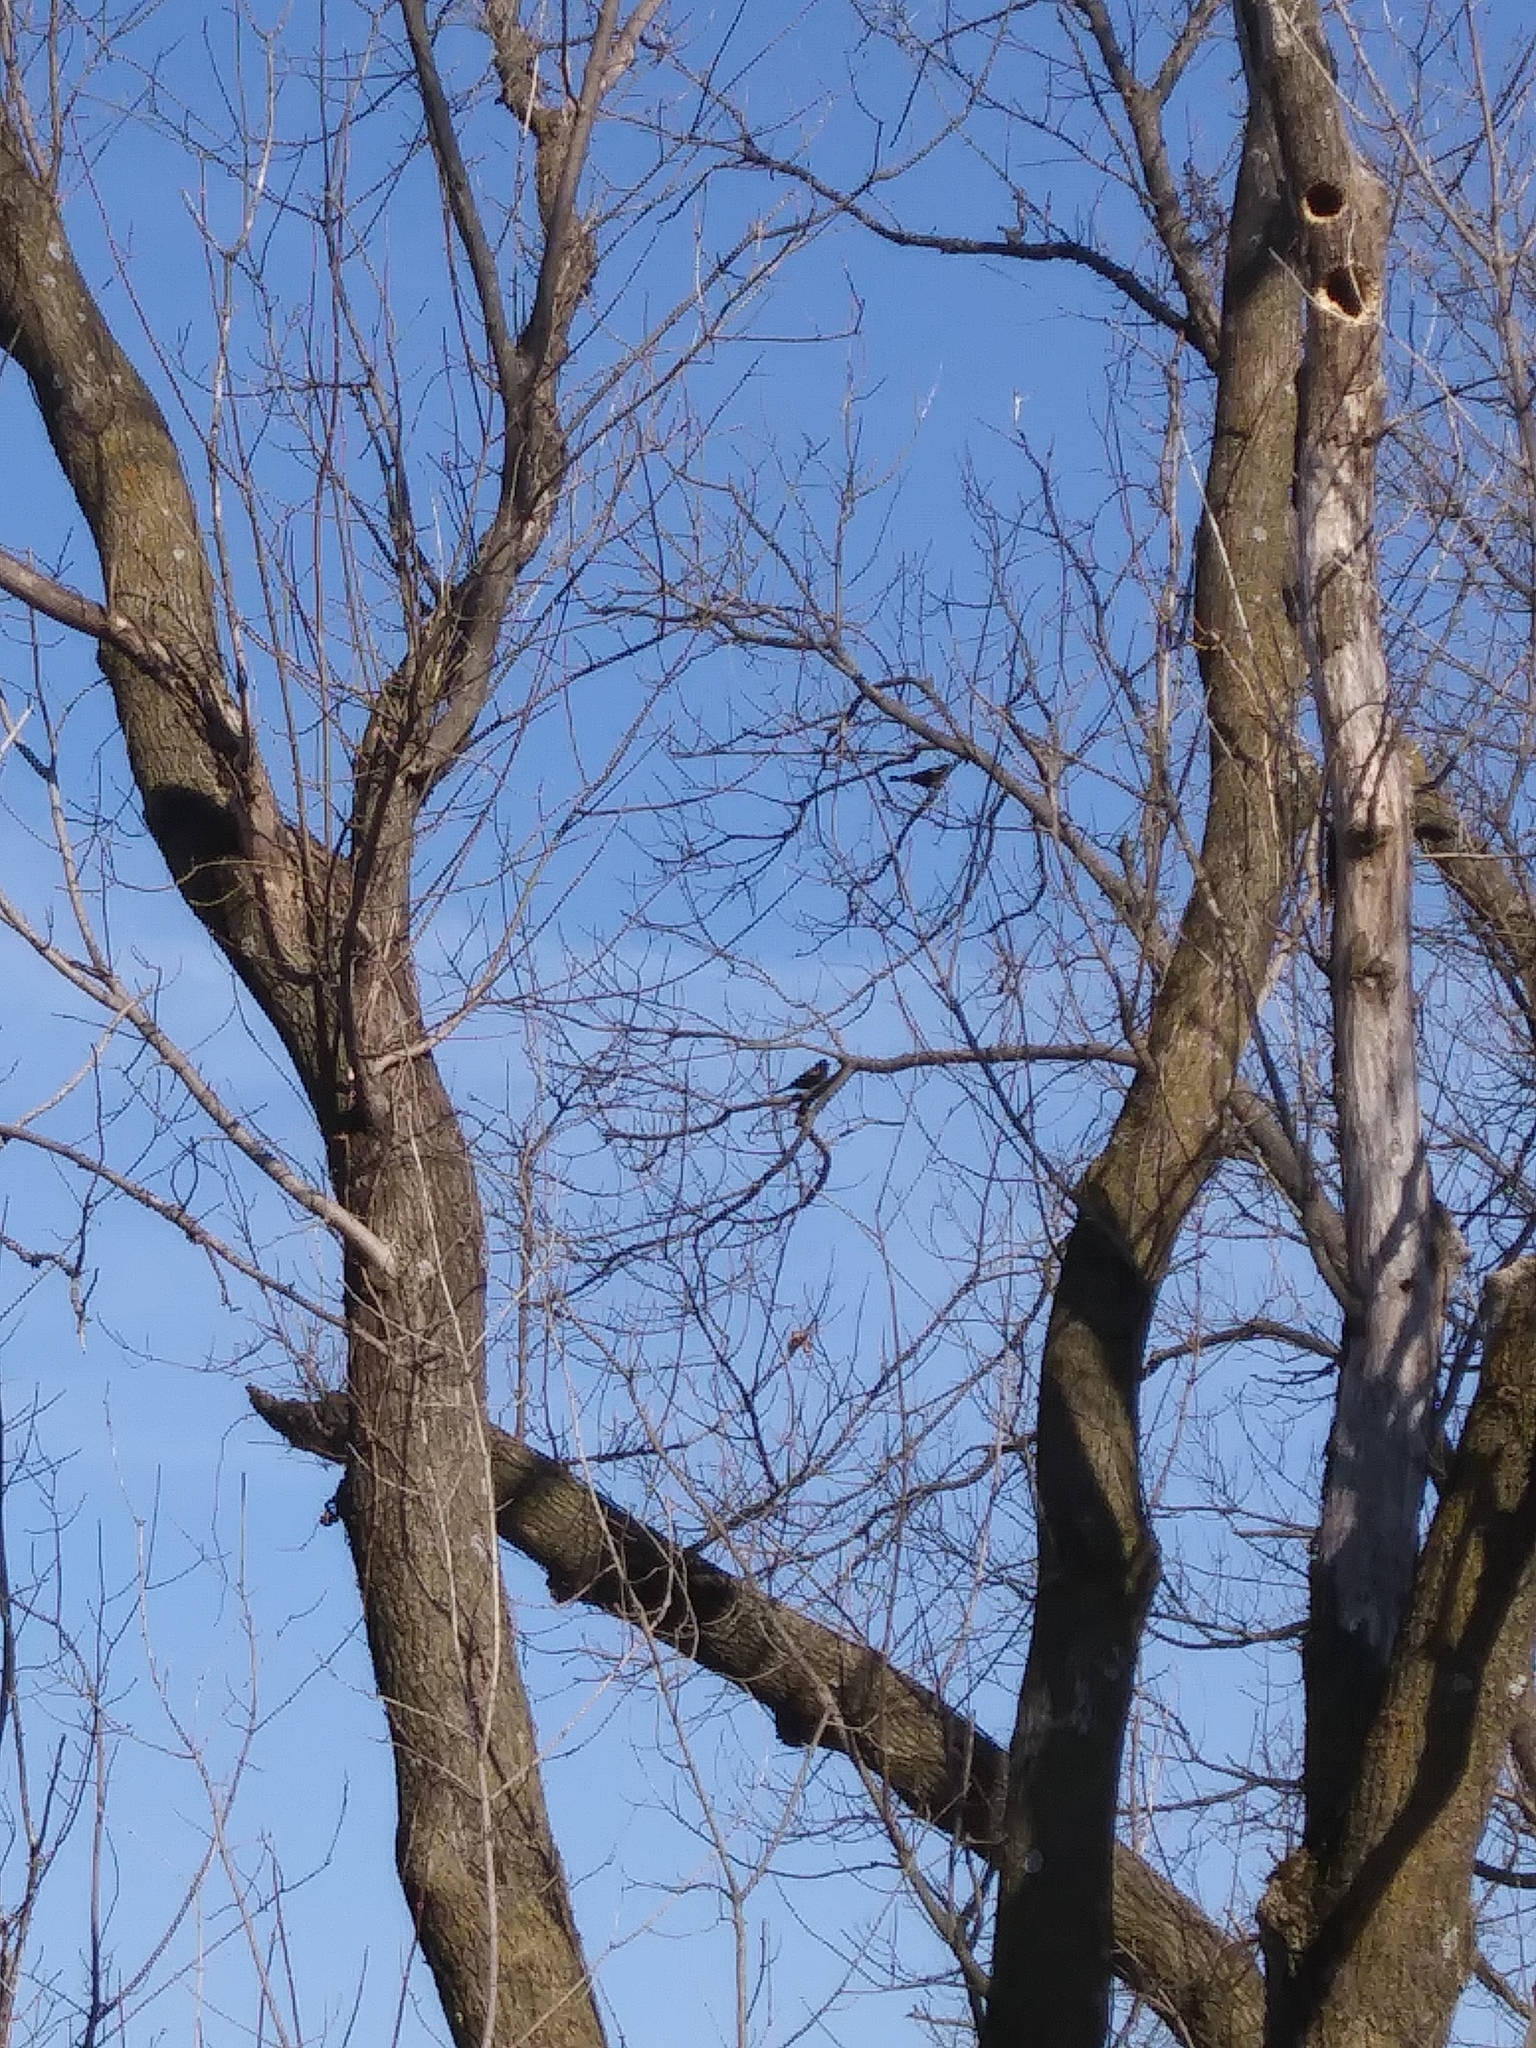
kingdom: Animalia
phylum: Chordata
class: Aves
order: Passeriformes
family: Icteridae
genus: Agelaius
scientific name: Agelaius phoeniceus
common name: Red-winged blackbird
